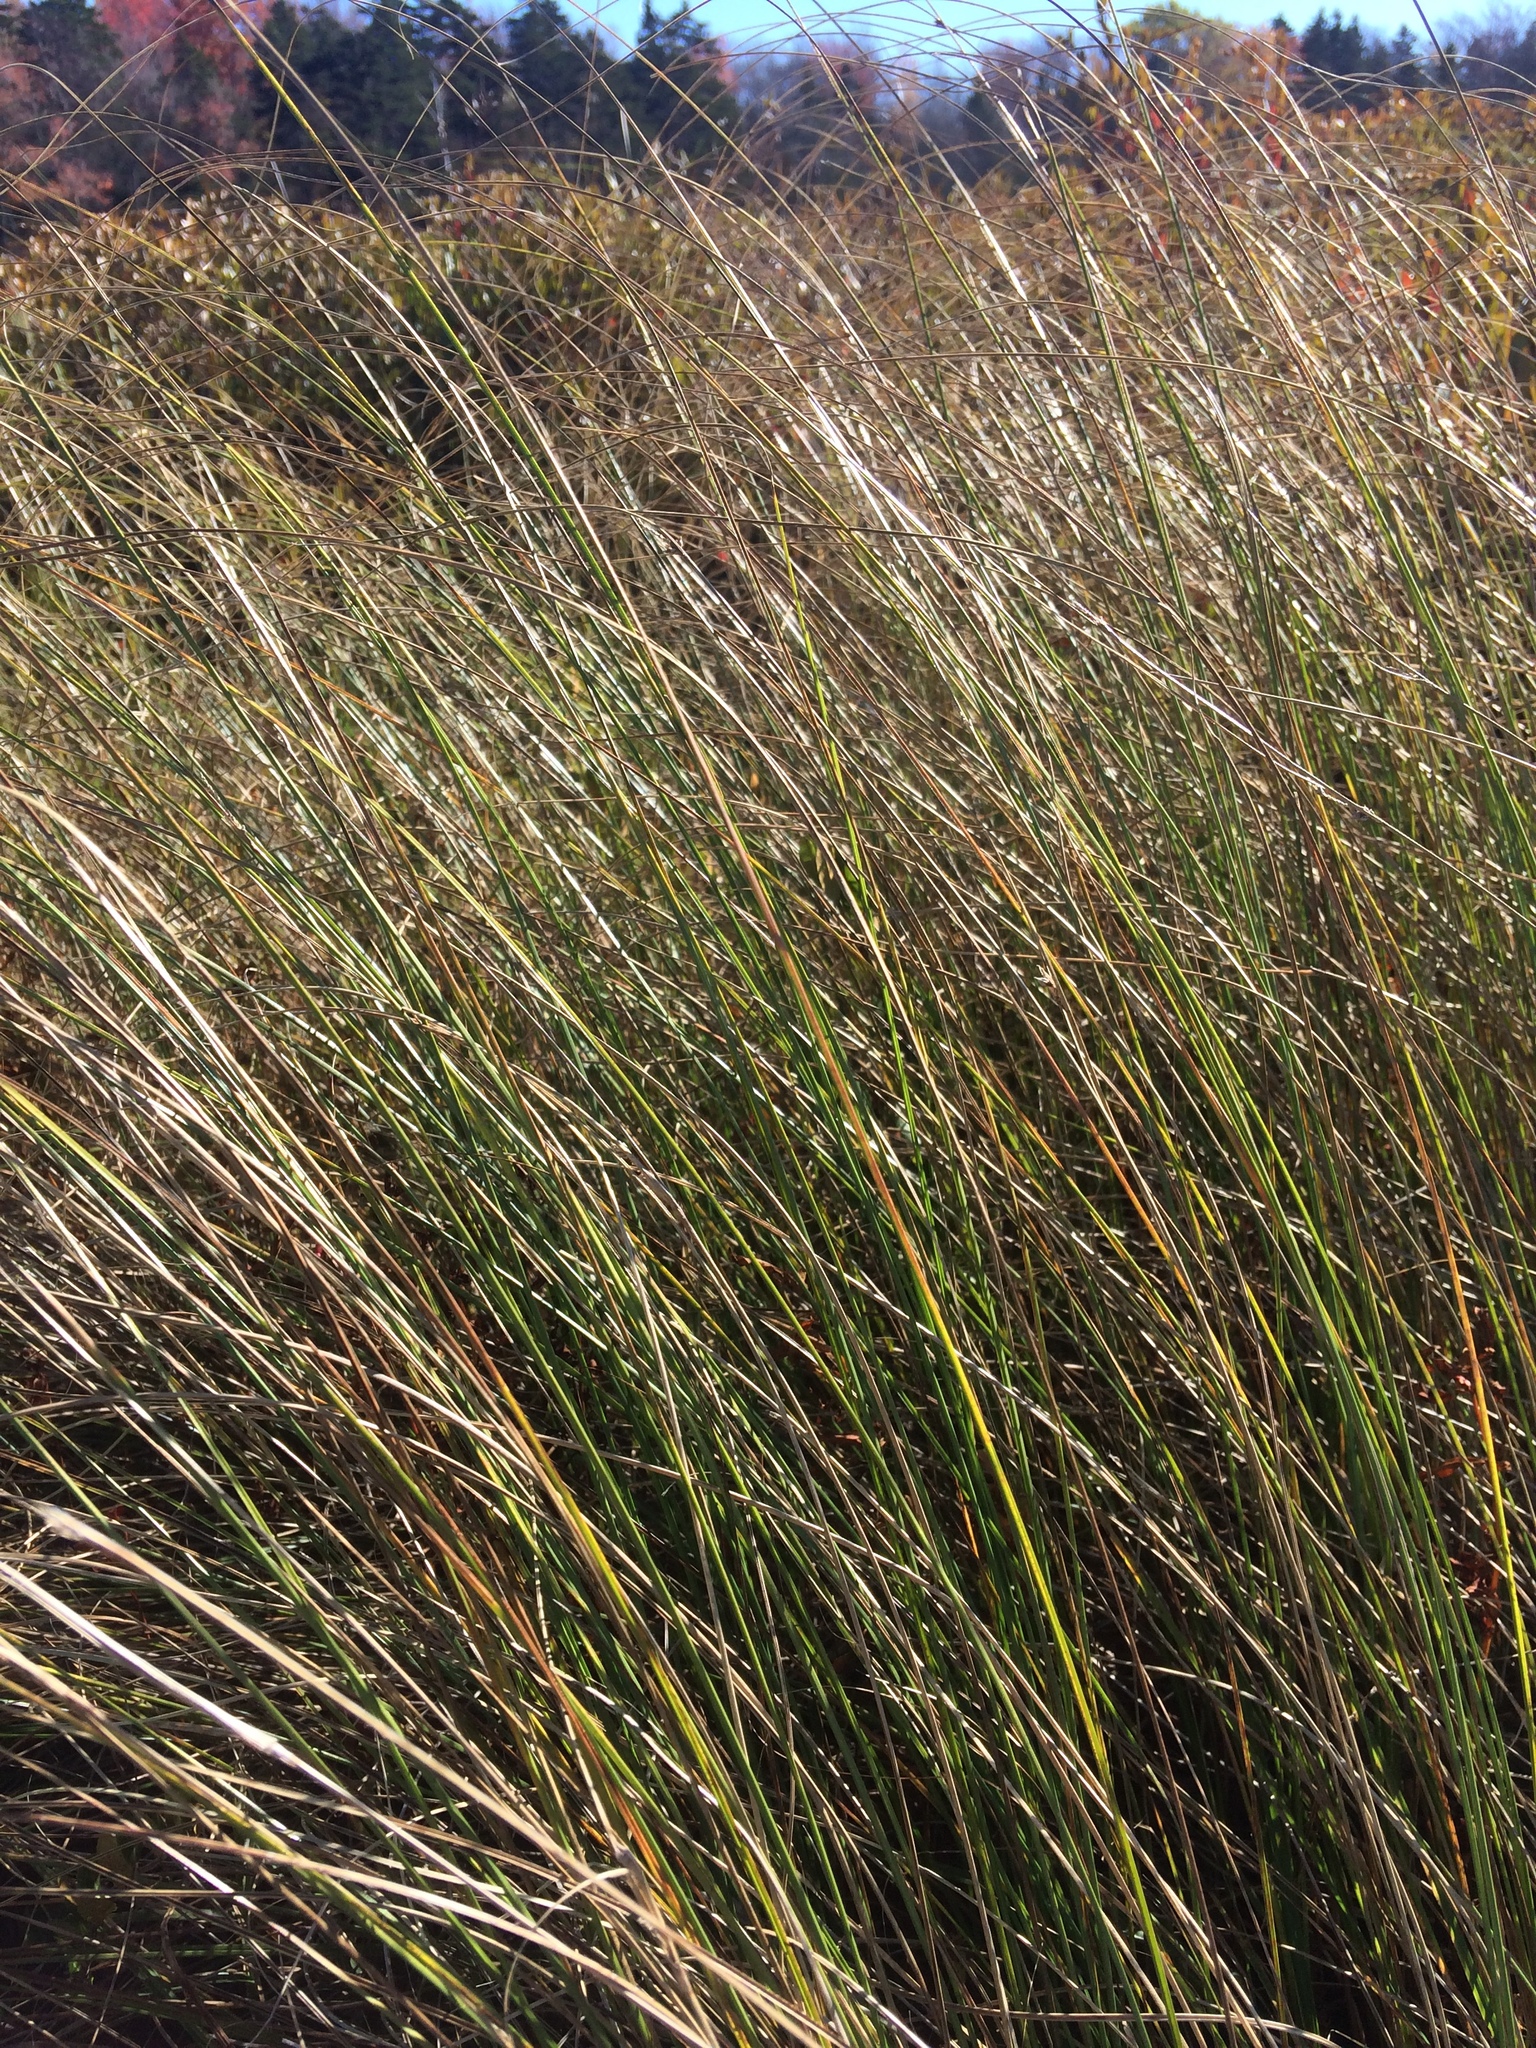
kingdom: Plantae
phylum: Tracheophyta
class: Liliopsida
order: Poales
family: Cyperaceae
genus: Carex
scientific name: Carex lasiocarpa
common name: Slender sedge
